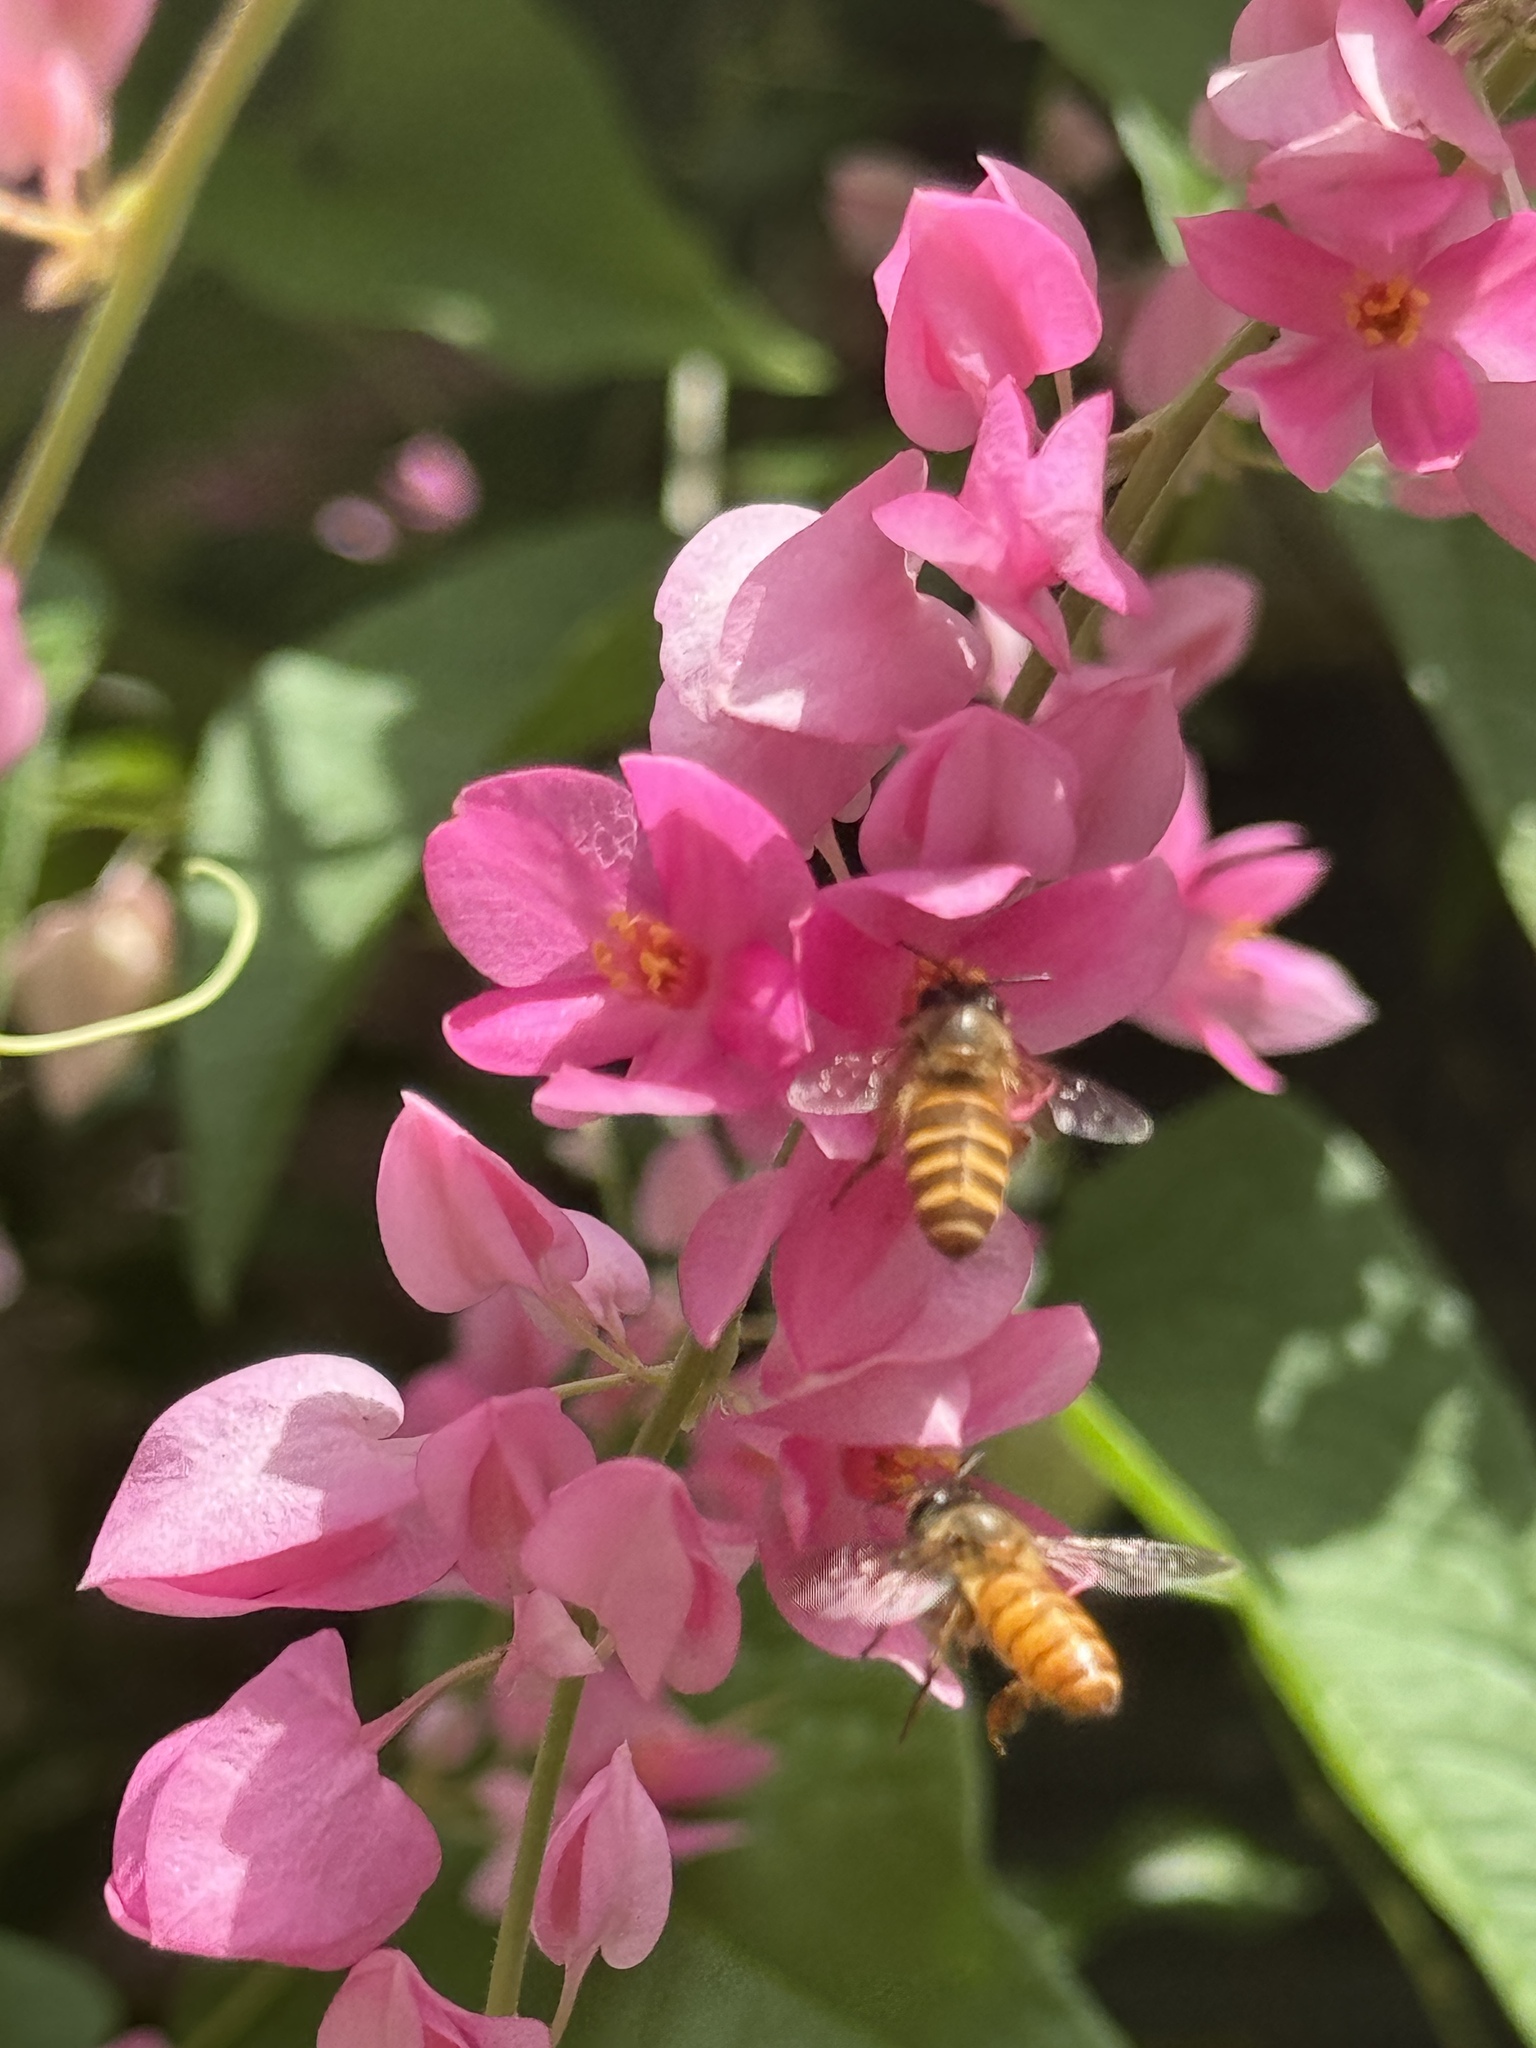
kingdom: Animalia
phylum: Arthropoda
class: Insecta
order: Hymenoptera
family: Apidae
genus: Apis
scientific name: Apis cerana
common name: Honey bee
